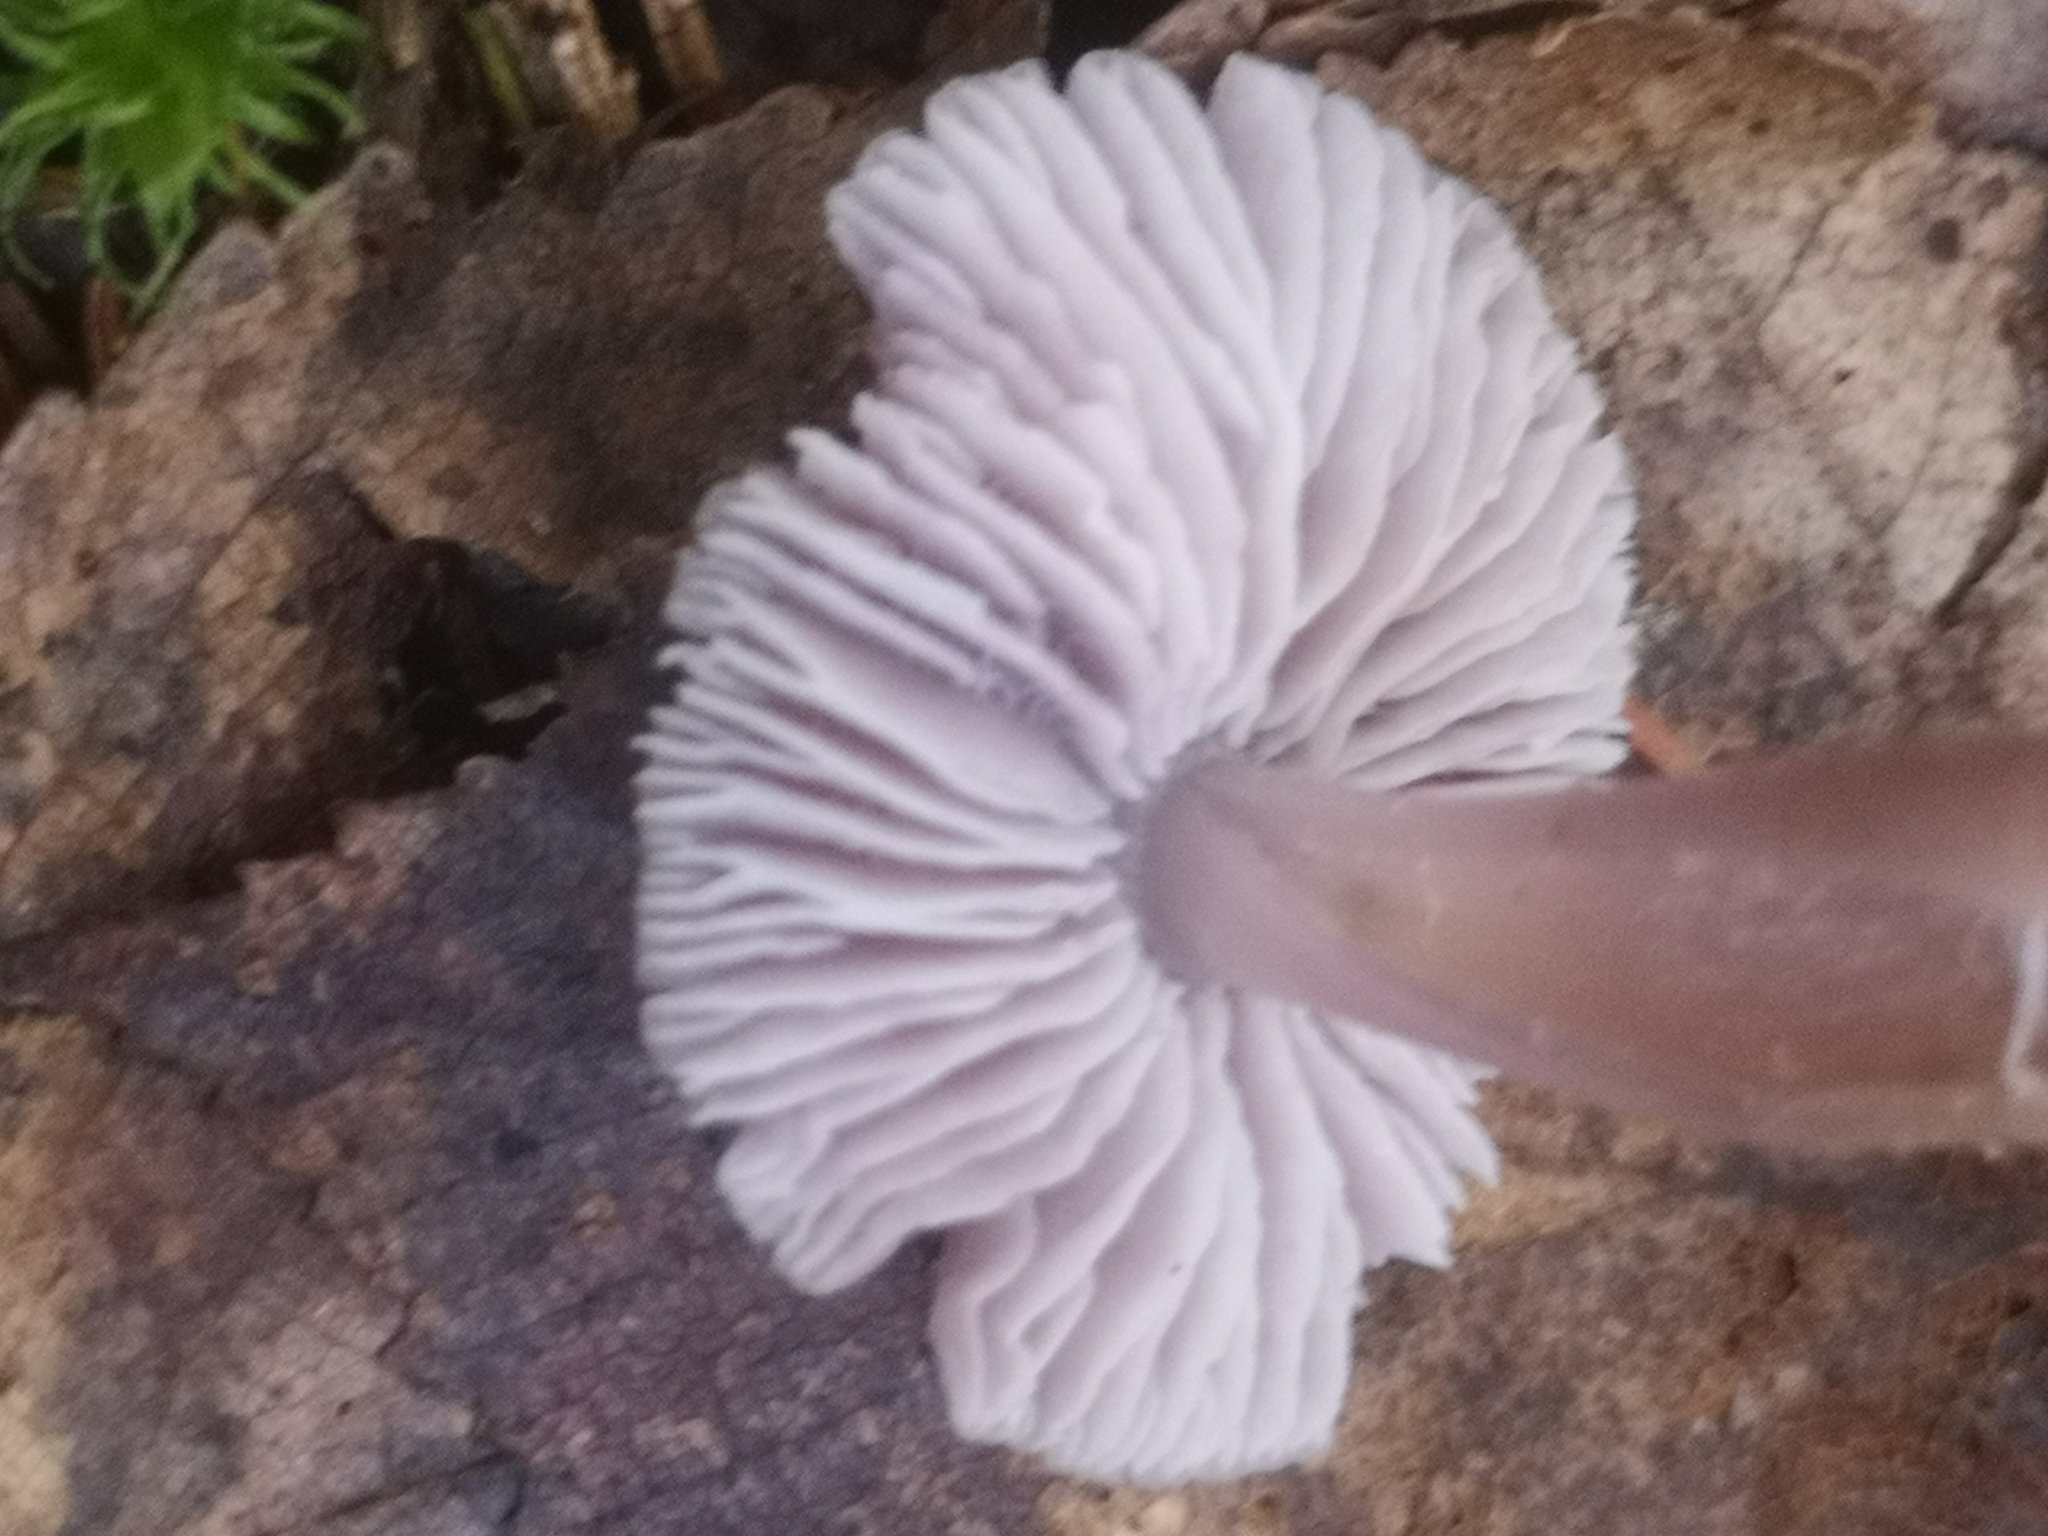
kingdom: Fungi
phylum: Basidiomycota
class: Agaricomycetes
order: Agaricales
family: Mycenaceae
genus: Mycena
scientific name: Mycena pura
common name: Lilac bonnet
